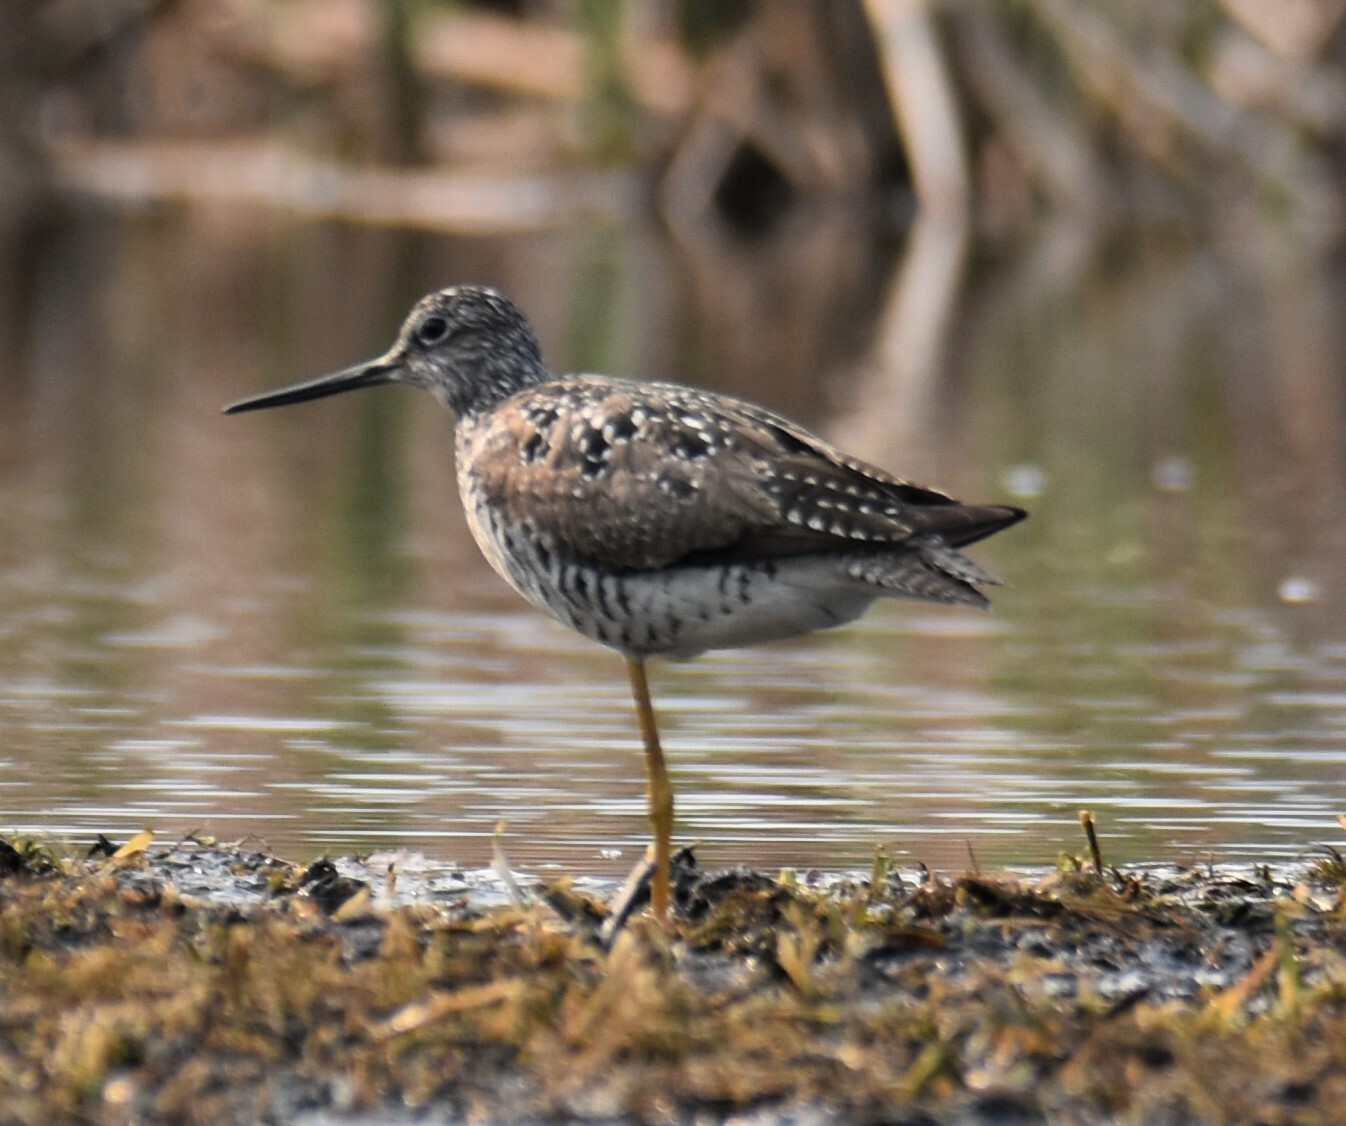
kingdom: Animalia
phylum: Chordata
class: Aves
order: Charadriiformes
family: Scolopacidae
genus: Tringa
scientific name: Tringa melanoleuca
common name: Greater yellowlegs
